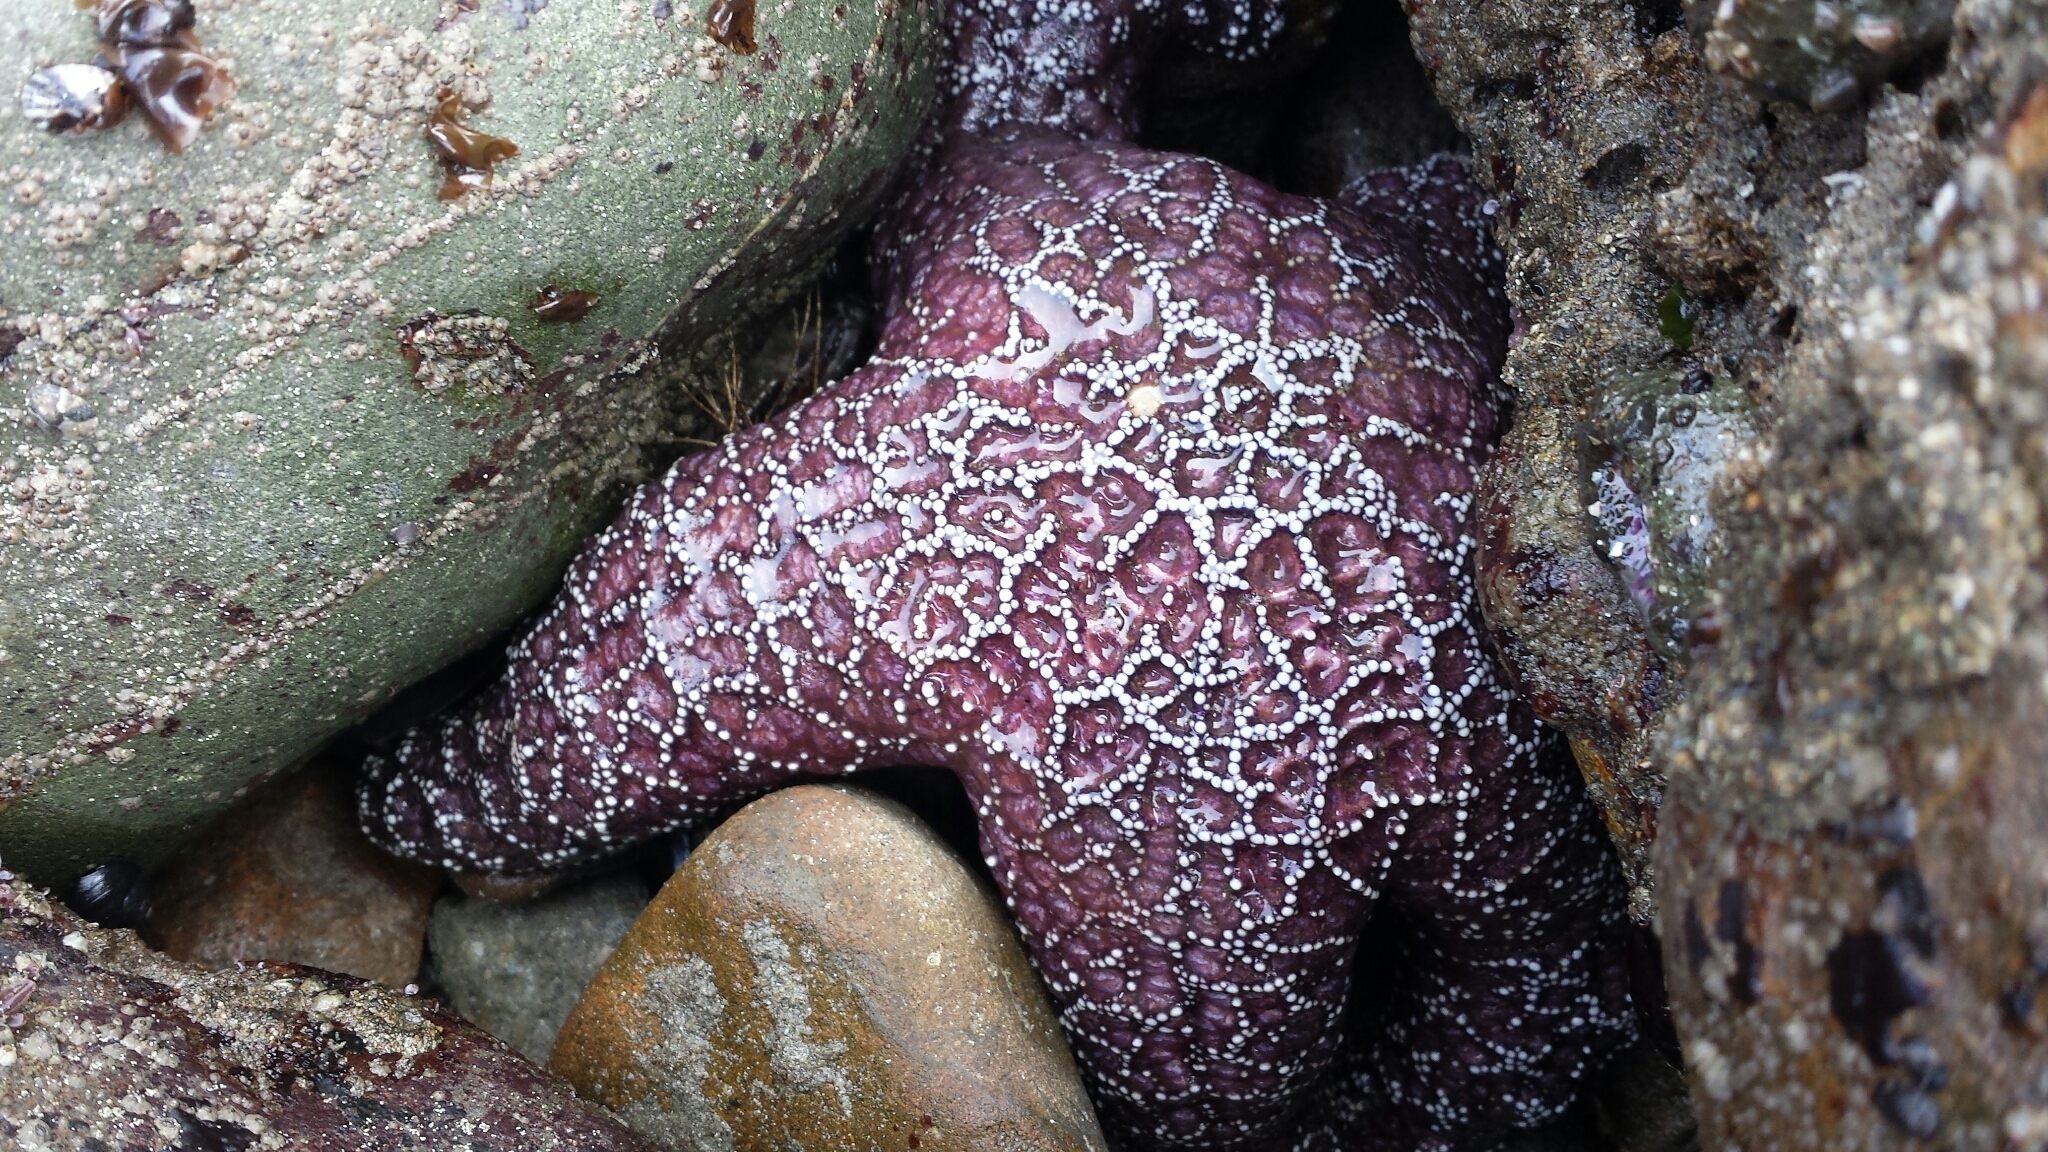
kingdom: Animalia
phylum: Echinodermata
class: Asteroidea
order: Forcipulatida
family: Asteriidae
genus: Pisaster
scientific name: Pisaster ochraceus
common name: Ochre stars
